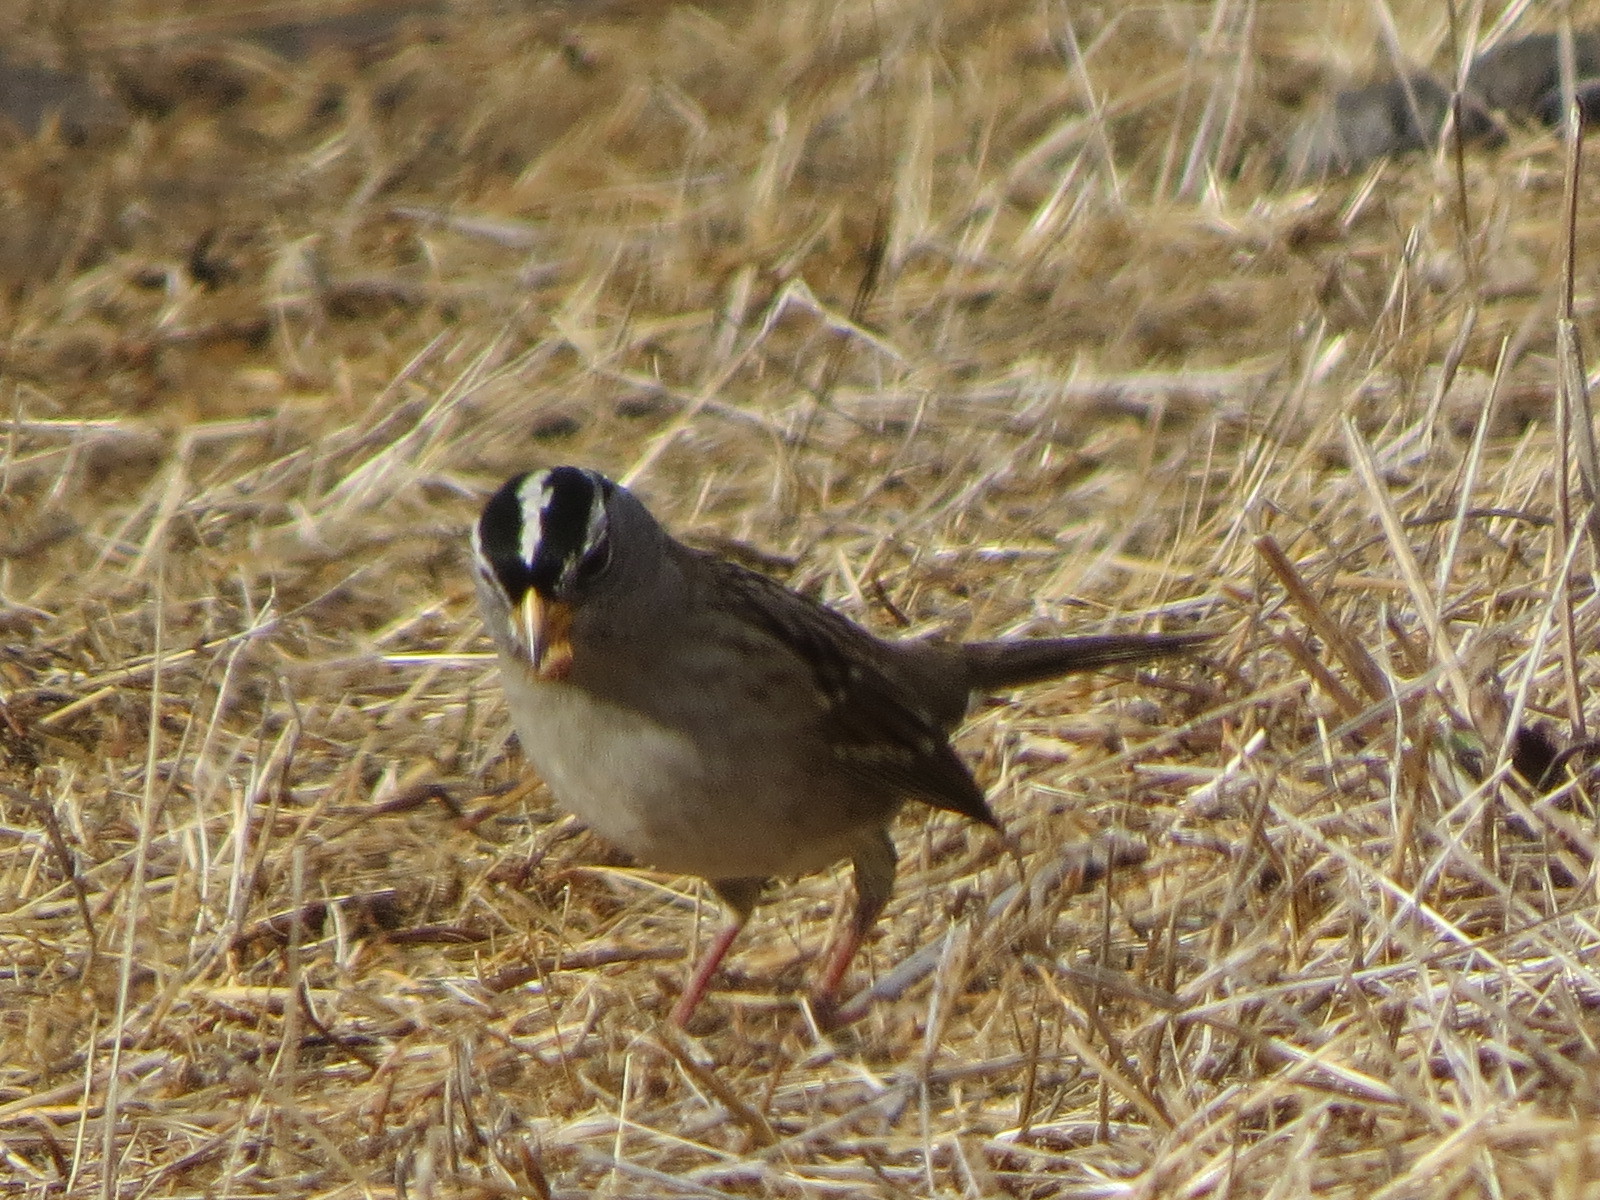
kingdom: Animalia
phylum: Chordata
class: Aves
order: Passeriformes
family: Passerellidae
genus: Zonotrichia
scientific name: Zonotrichia leucophrys
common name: White-crowned sparrow
